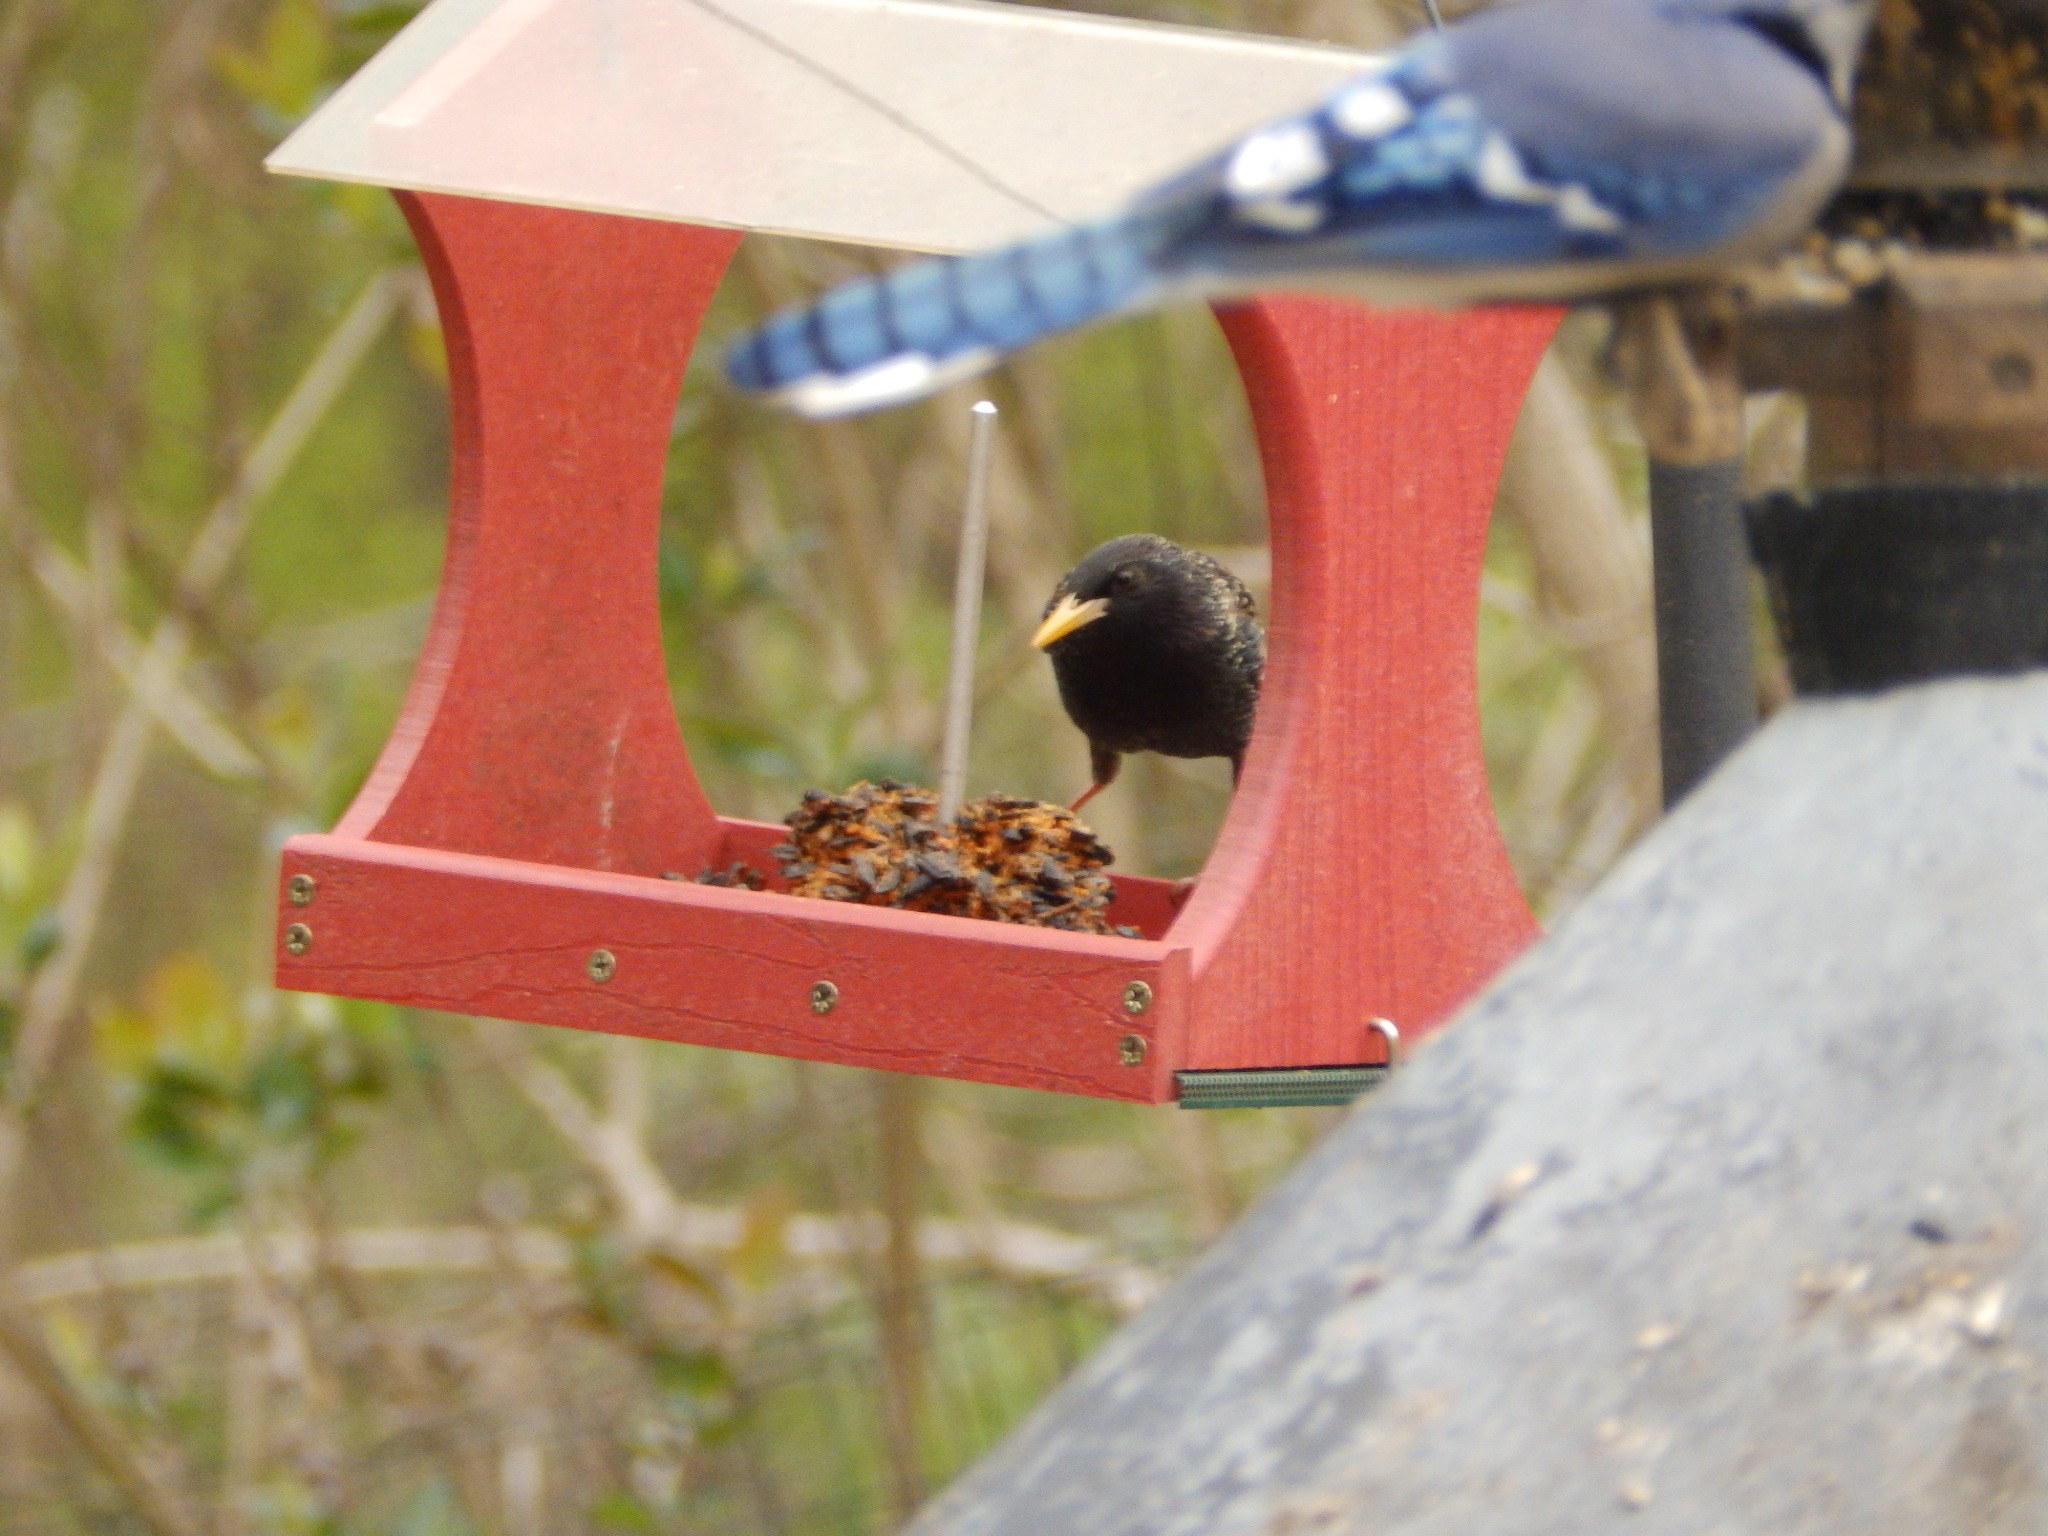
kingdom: Animalia
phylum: Chordata
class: Aves
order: Passeriformes
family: Sturnidae
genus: Sturnus
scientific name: Sturnus vulgaris
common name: Common starling
